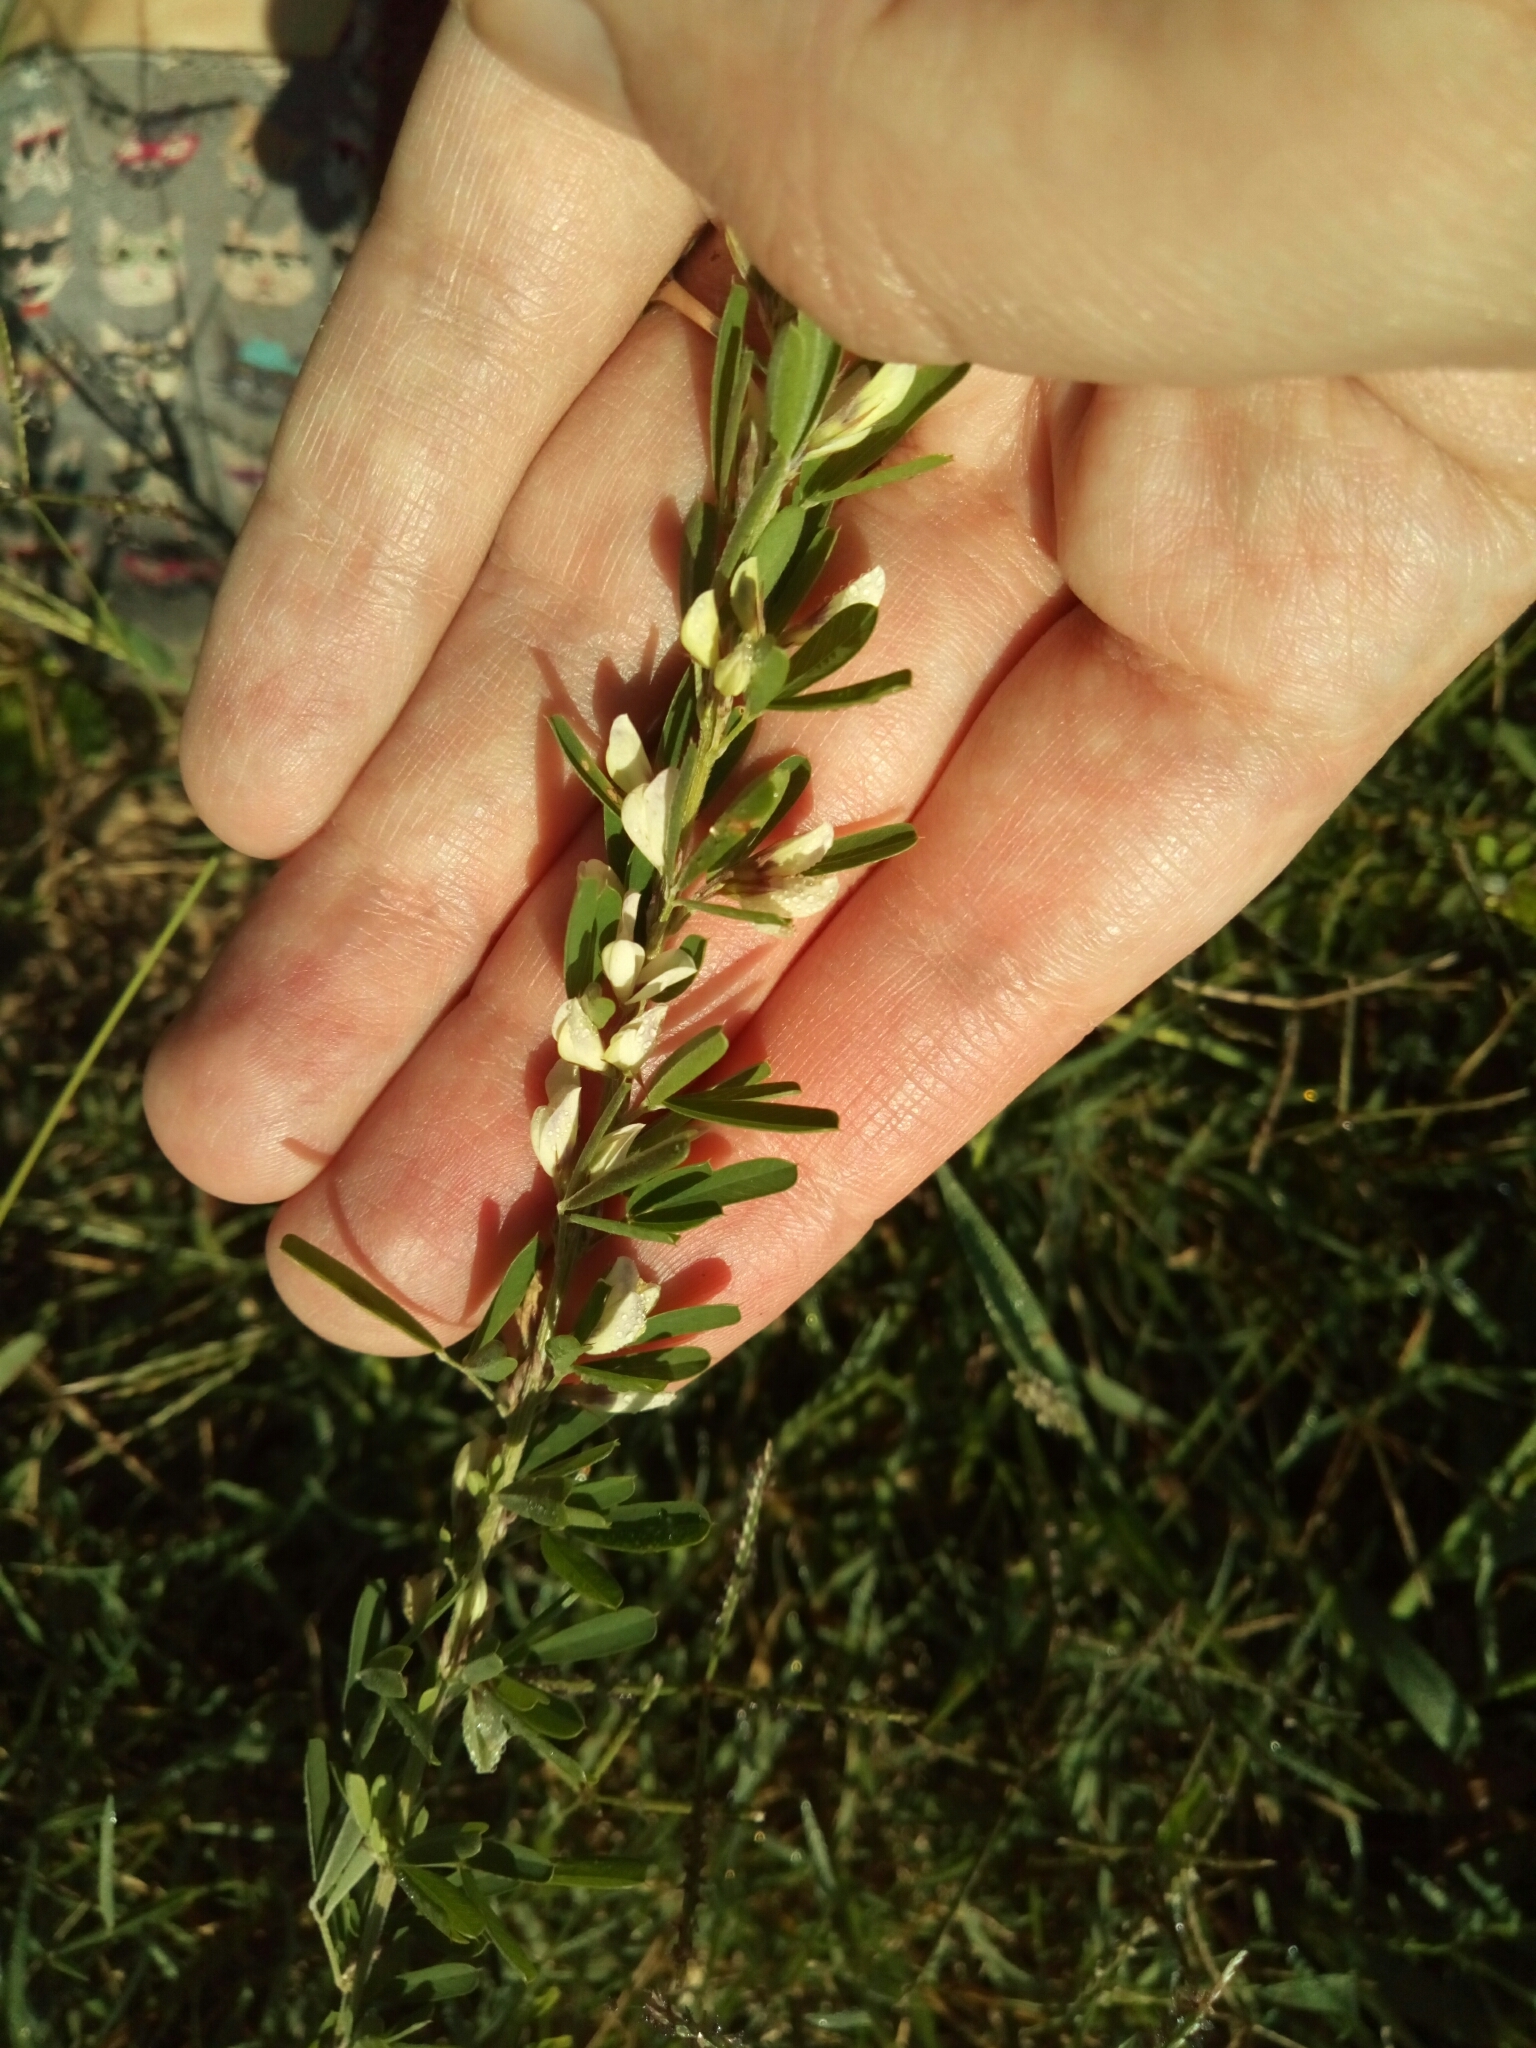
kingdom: Plantae
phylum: Tracheophyta
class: Magnoliopsida
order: Fabales
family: Fabaceae
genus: Lespedeza
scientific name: Lespedeza cuneata
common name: Chinese bush-clover
